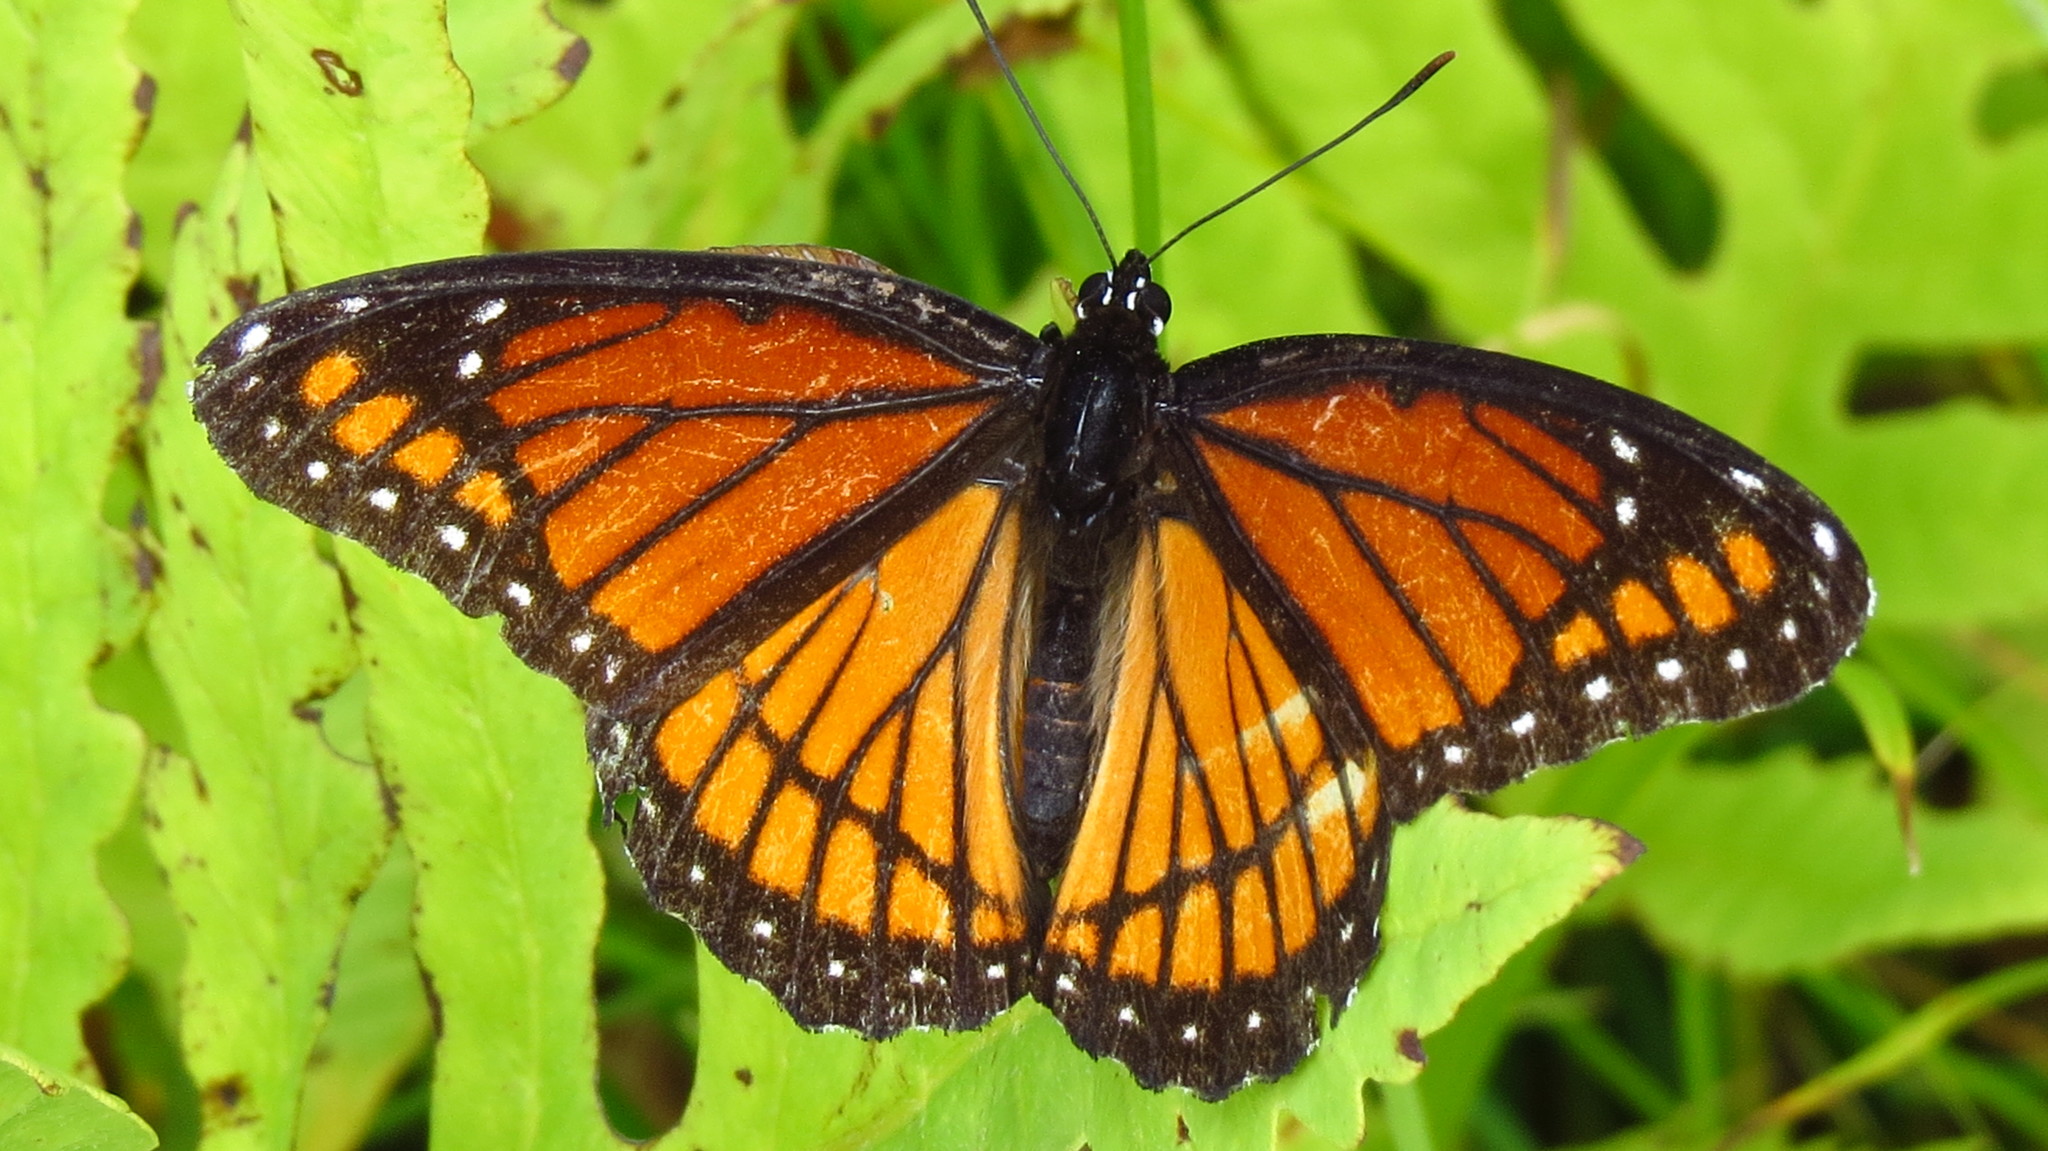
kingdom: Animalia
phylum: Arthropoda
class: Insecta
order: Lepidoptera
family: Nymphalidae
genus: Limenitis
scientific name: Limenitis archippus
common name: Viceroy
